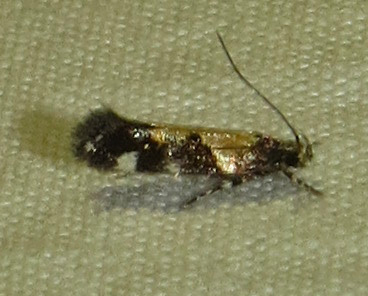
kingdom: Animalia
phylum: Arthropoda
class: Insecta
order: Lepidoptera
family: Gelechiidae
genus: Stegasta
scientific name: Stegasta bosqueella
